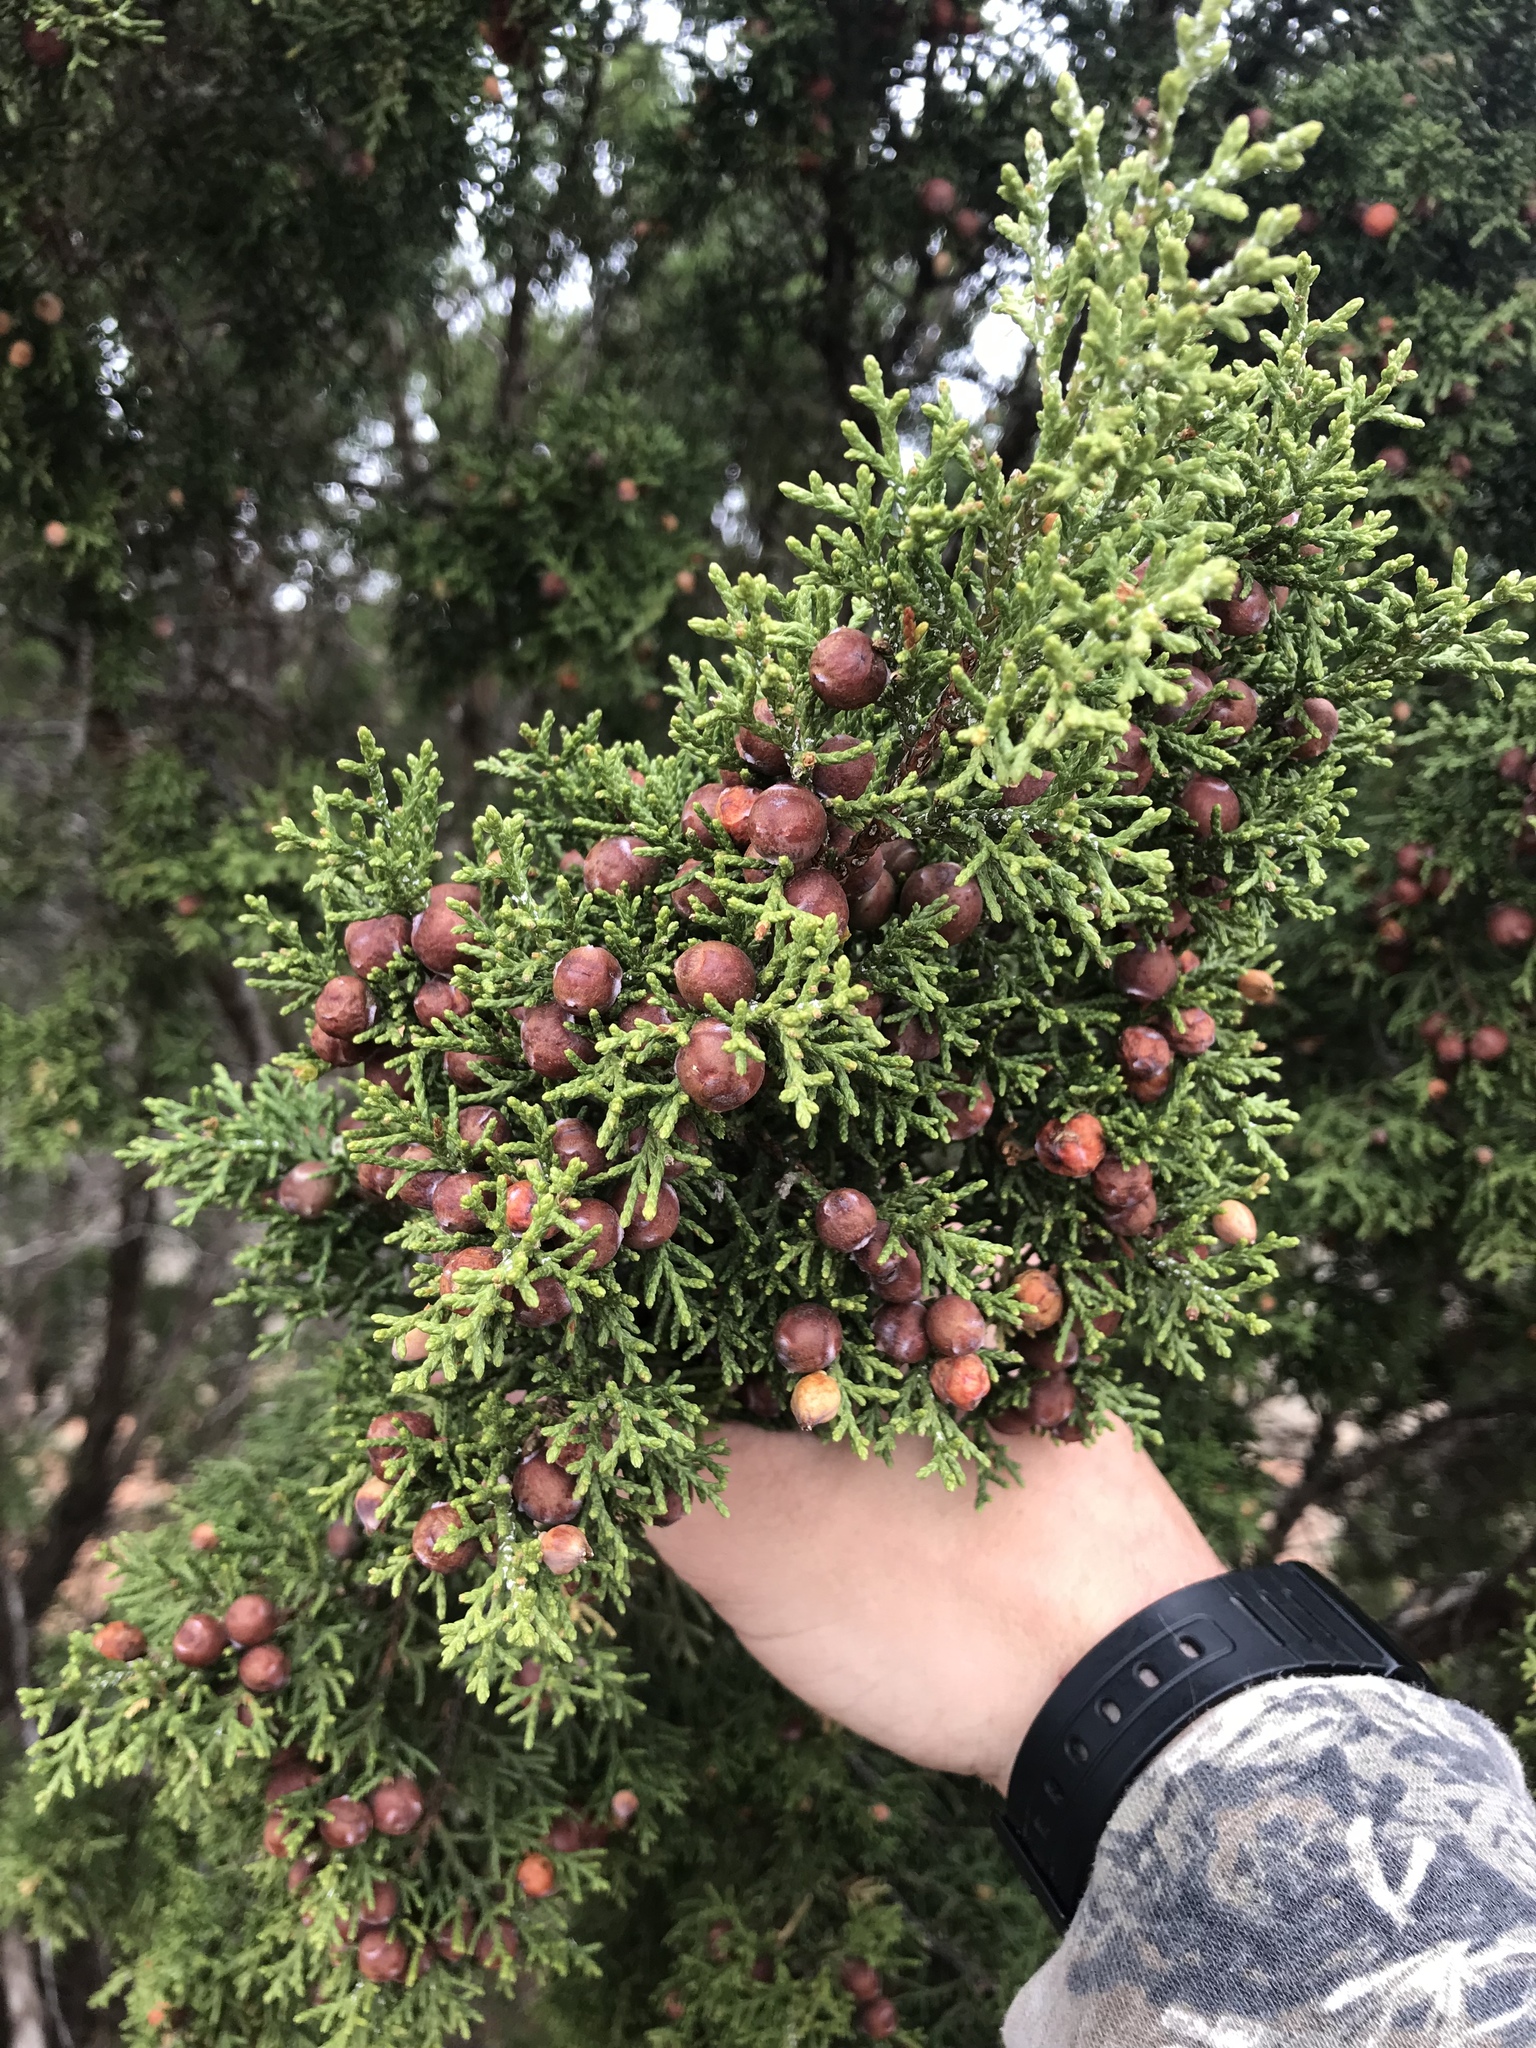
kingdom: Plantae
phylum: Tracheophyta
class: Pinopsida
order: Pinales
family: Cupressaceae
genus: Juniperus
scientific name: Juniperus pinchotii
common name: Pinchot juniper
